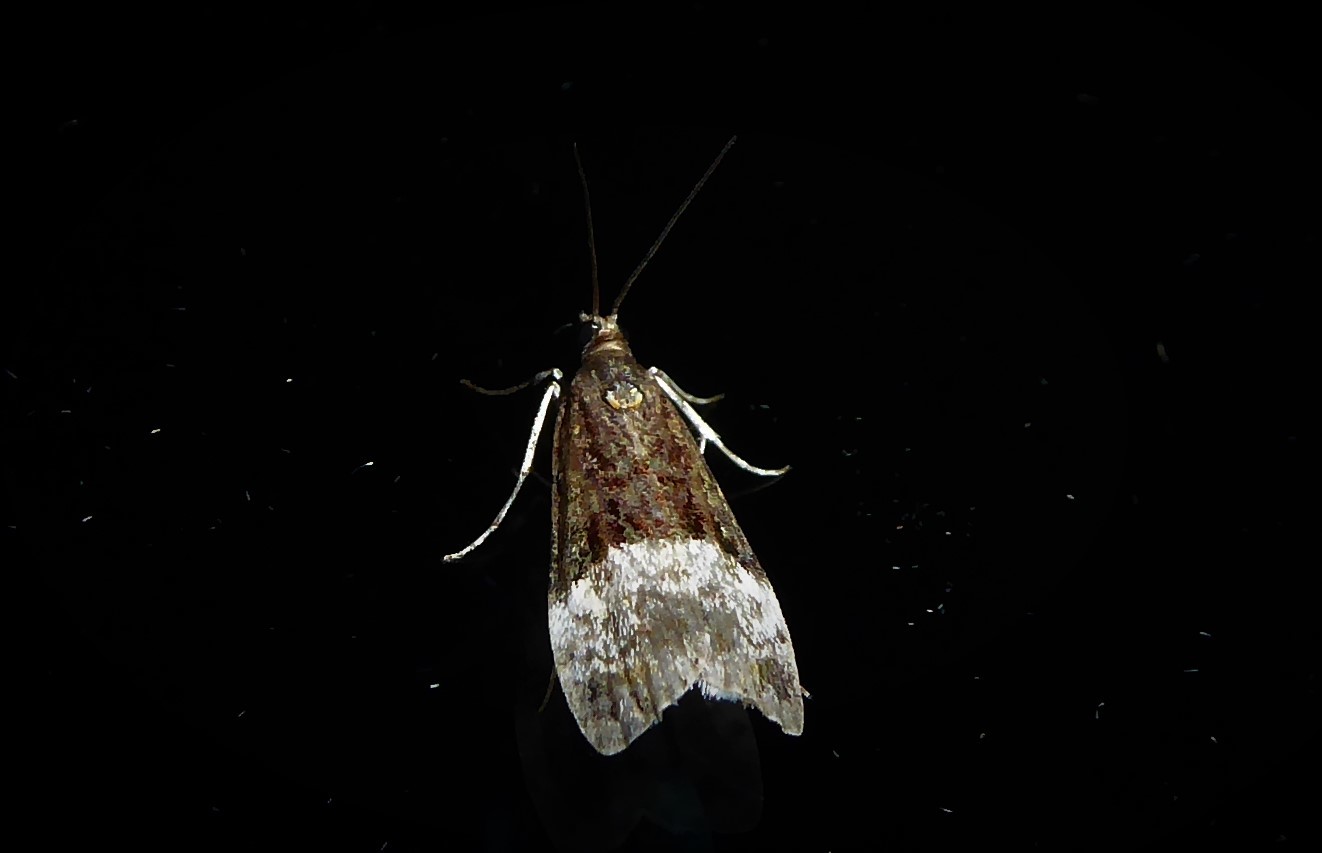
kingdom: Animalia
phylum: Arthropoda
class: Insecta
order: Lepidoptera
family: Crambidae
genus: Scoparia
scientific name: Scoparia minusculalis
